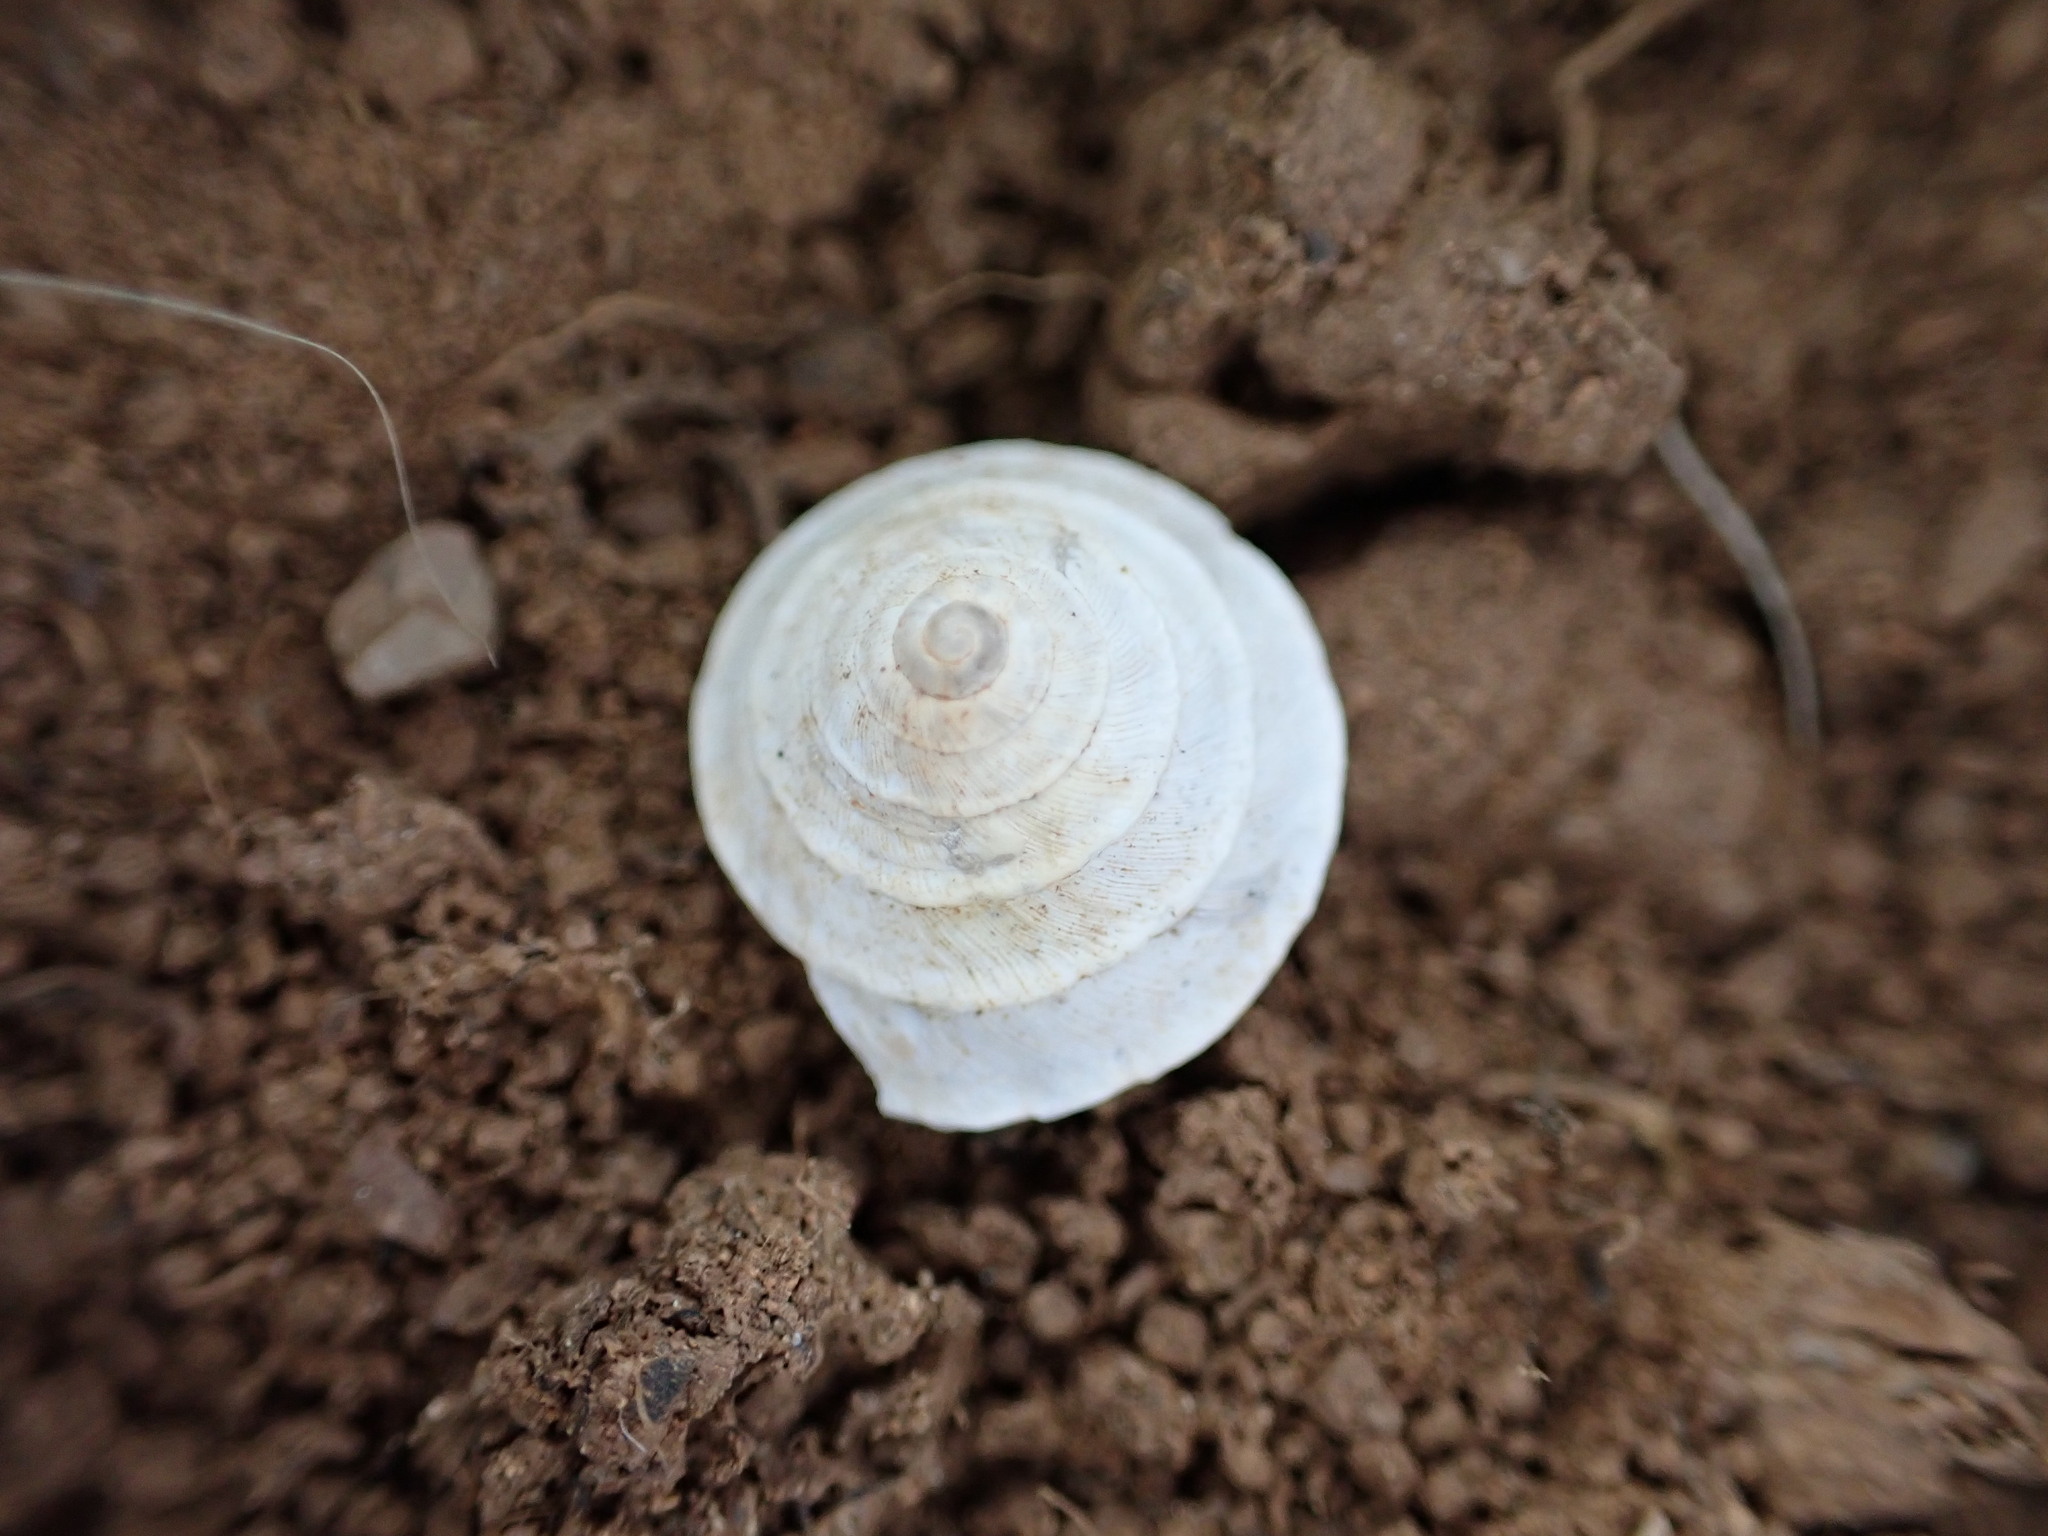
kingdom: Animalia
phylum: Mollusca
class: Gastropoda
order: Stylommatophora
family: Geomitridae
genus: Trochoidea
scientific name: Trochoidea elegans
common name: Elegant helicellid
